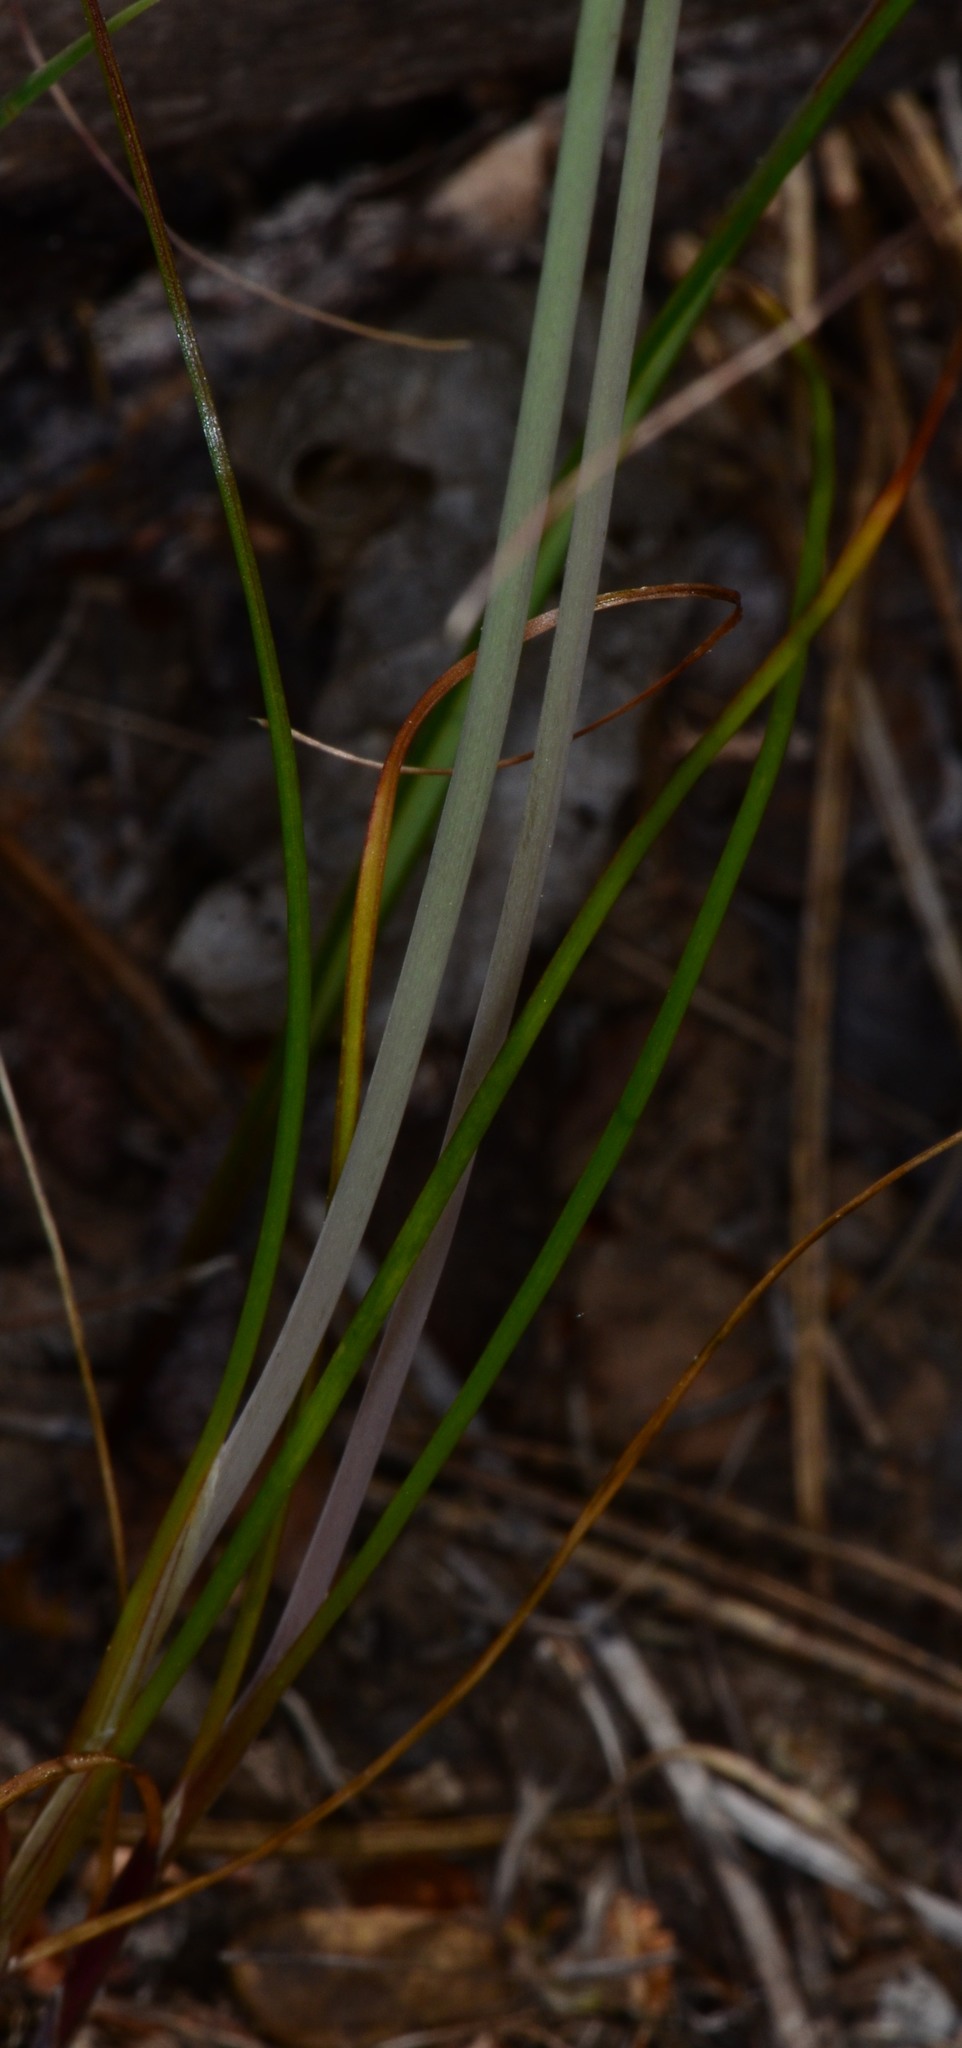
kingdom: Plantae
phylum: Tracheophyta
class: Liliopsida
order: Asparagales
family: Amaryllidaceae
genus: Allium
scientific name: Allium amplectens
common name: Narrow-leaved onion
